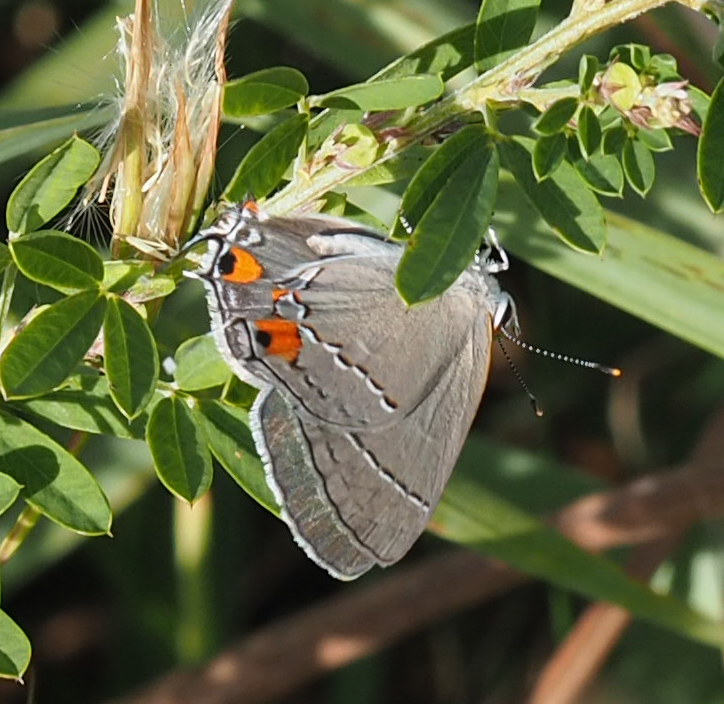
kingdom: Animalia
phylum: Arthropoda
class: Insecta
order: Lepidoptera
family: Lycaenidae
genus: Strymon
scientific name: Strymon melinus
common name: Gray hairstreak
